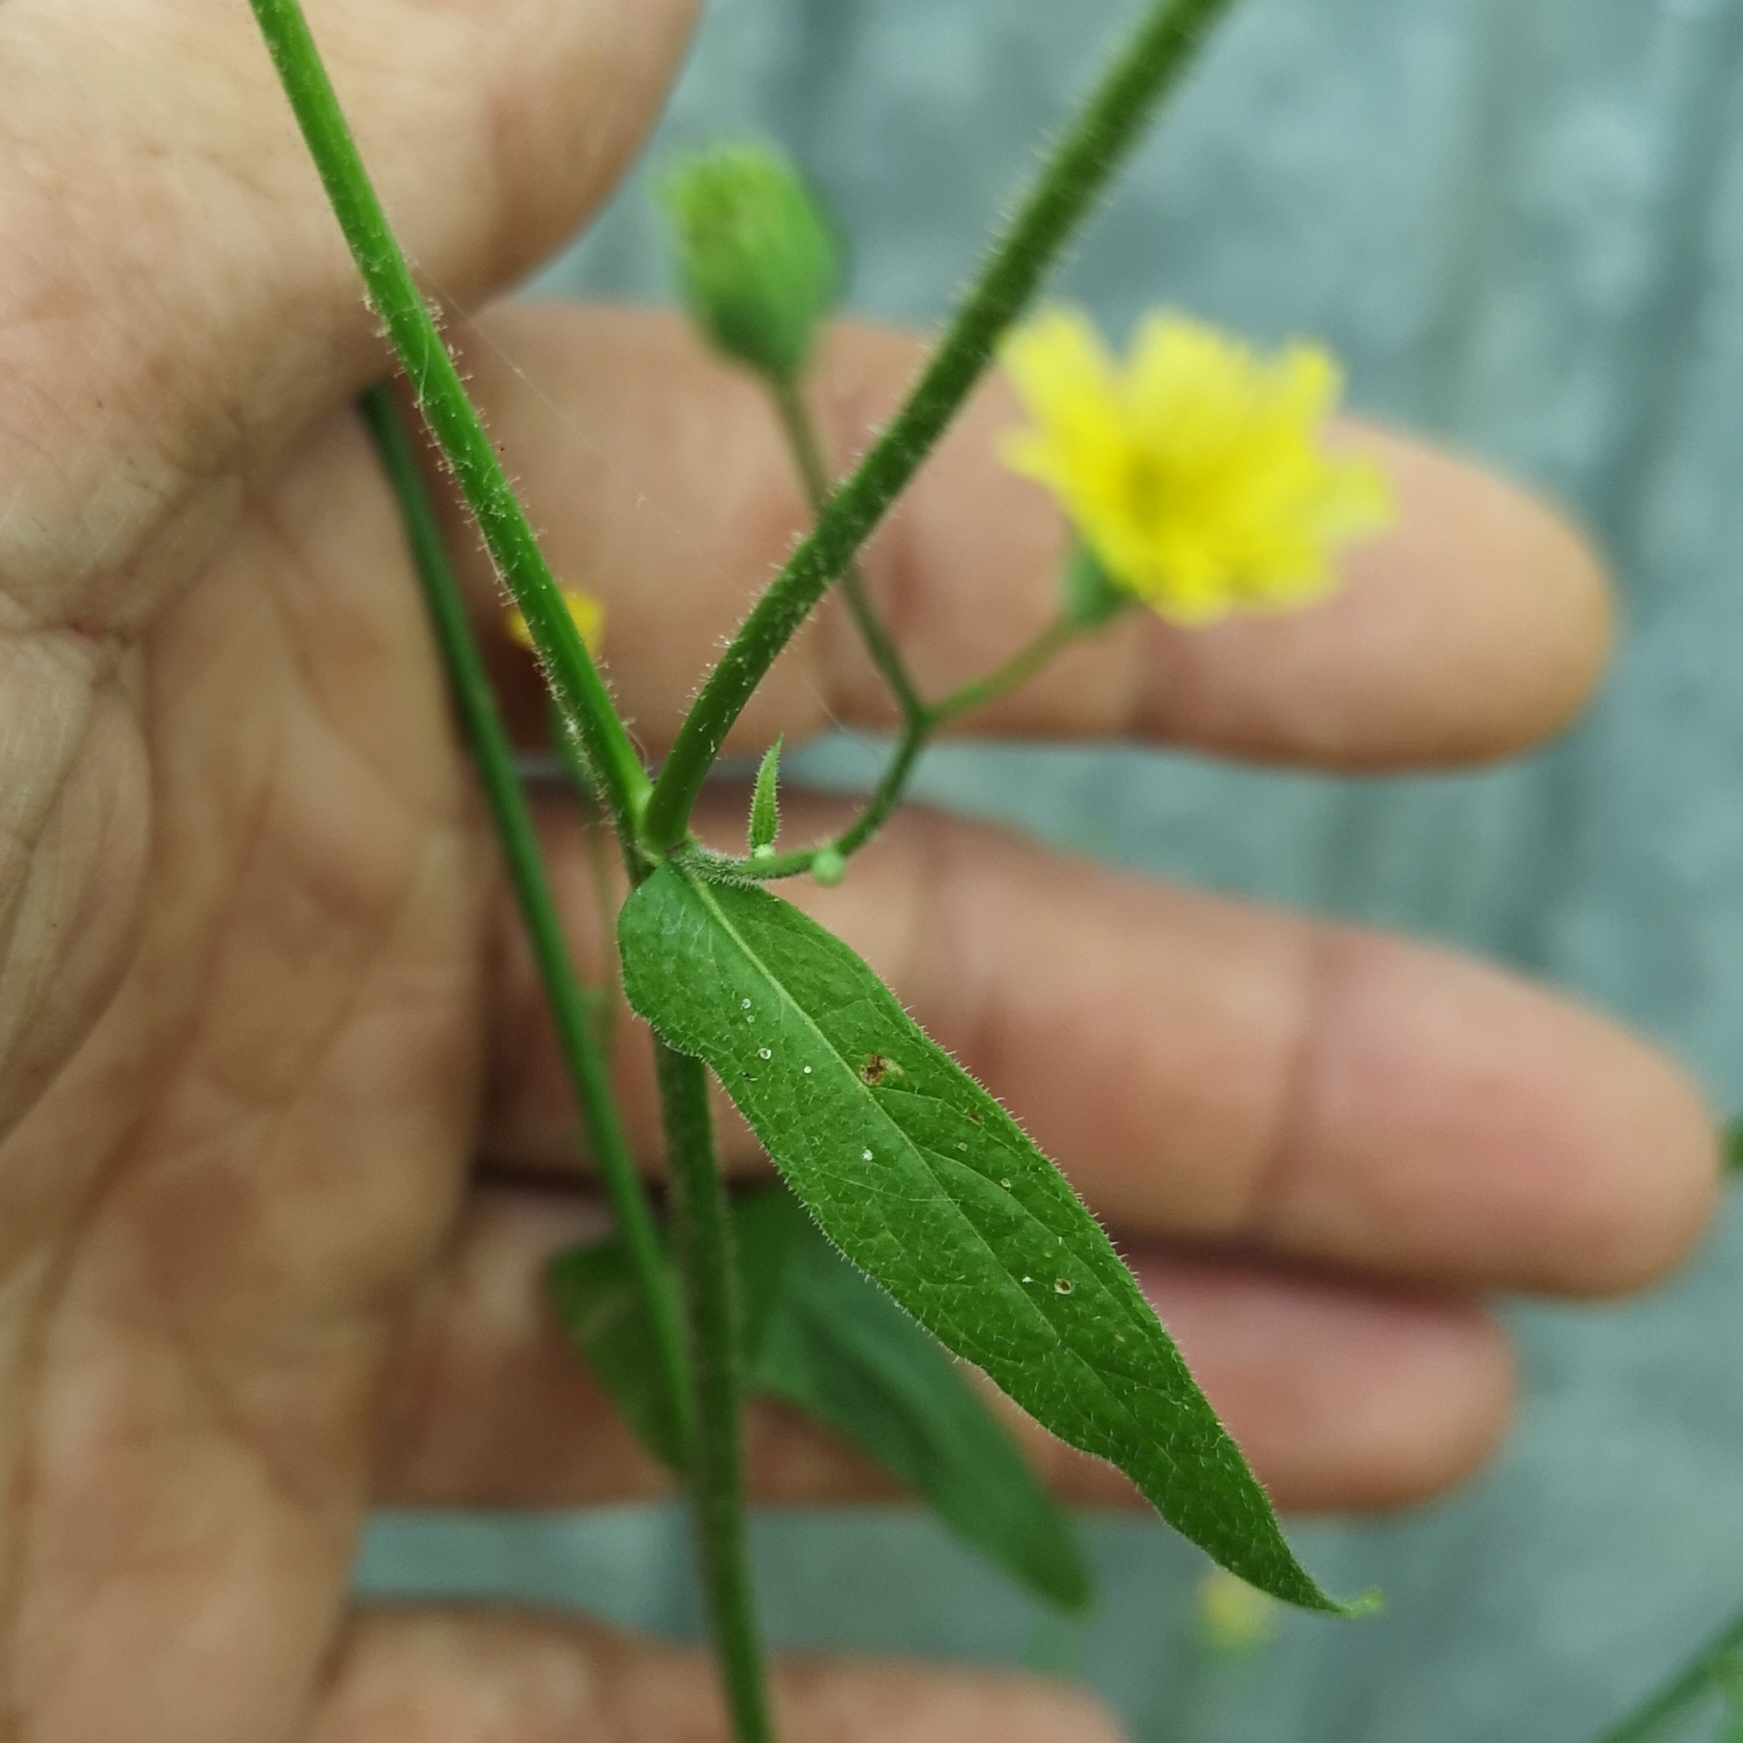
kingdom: Plantae
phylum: Tracheophyta
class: Magnoliopsida
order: Asterales
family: Asteraceae
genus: Lapsana
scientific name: Lapsana communis
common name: Nipplewort
